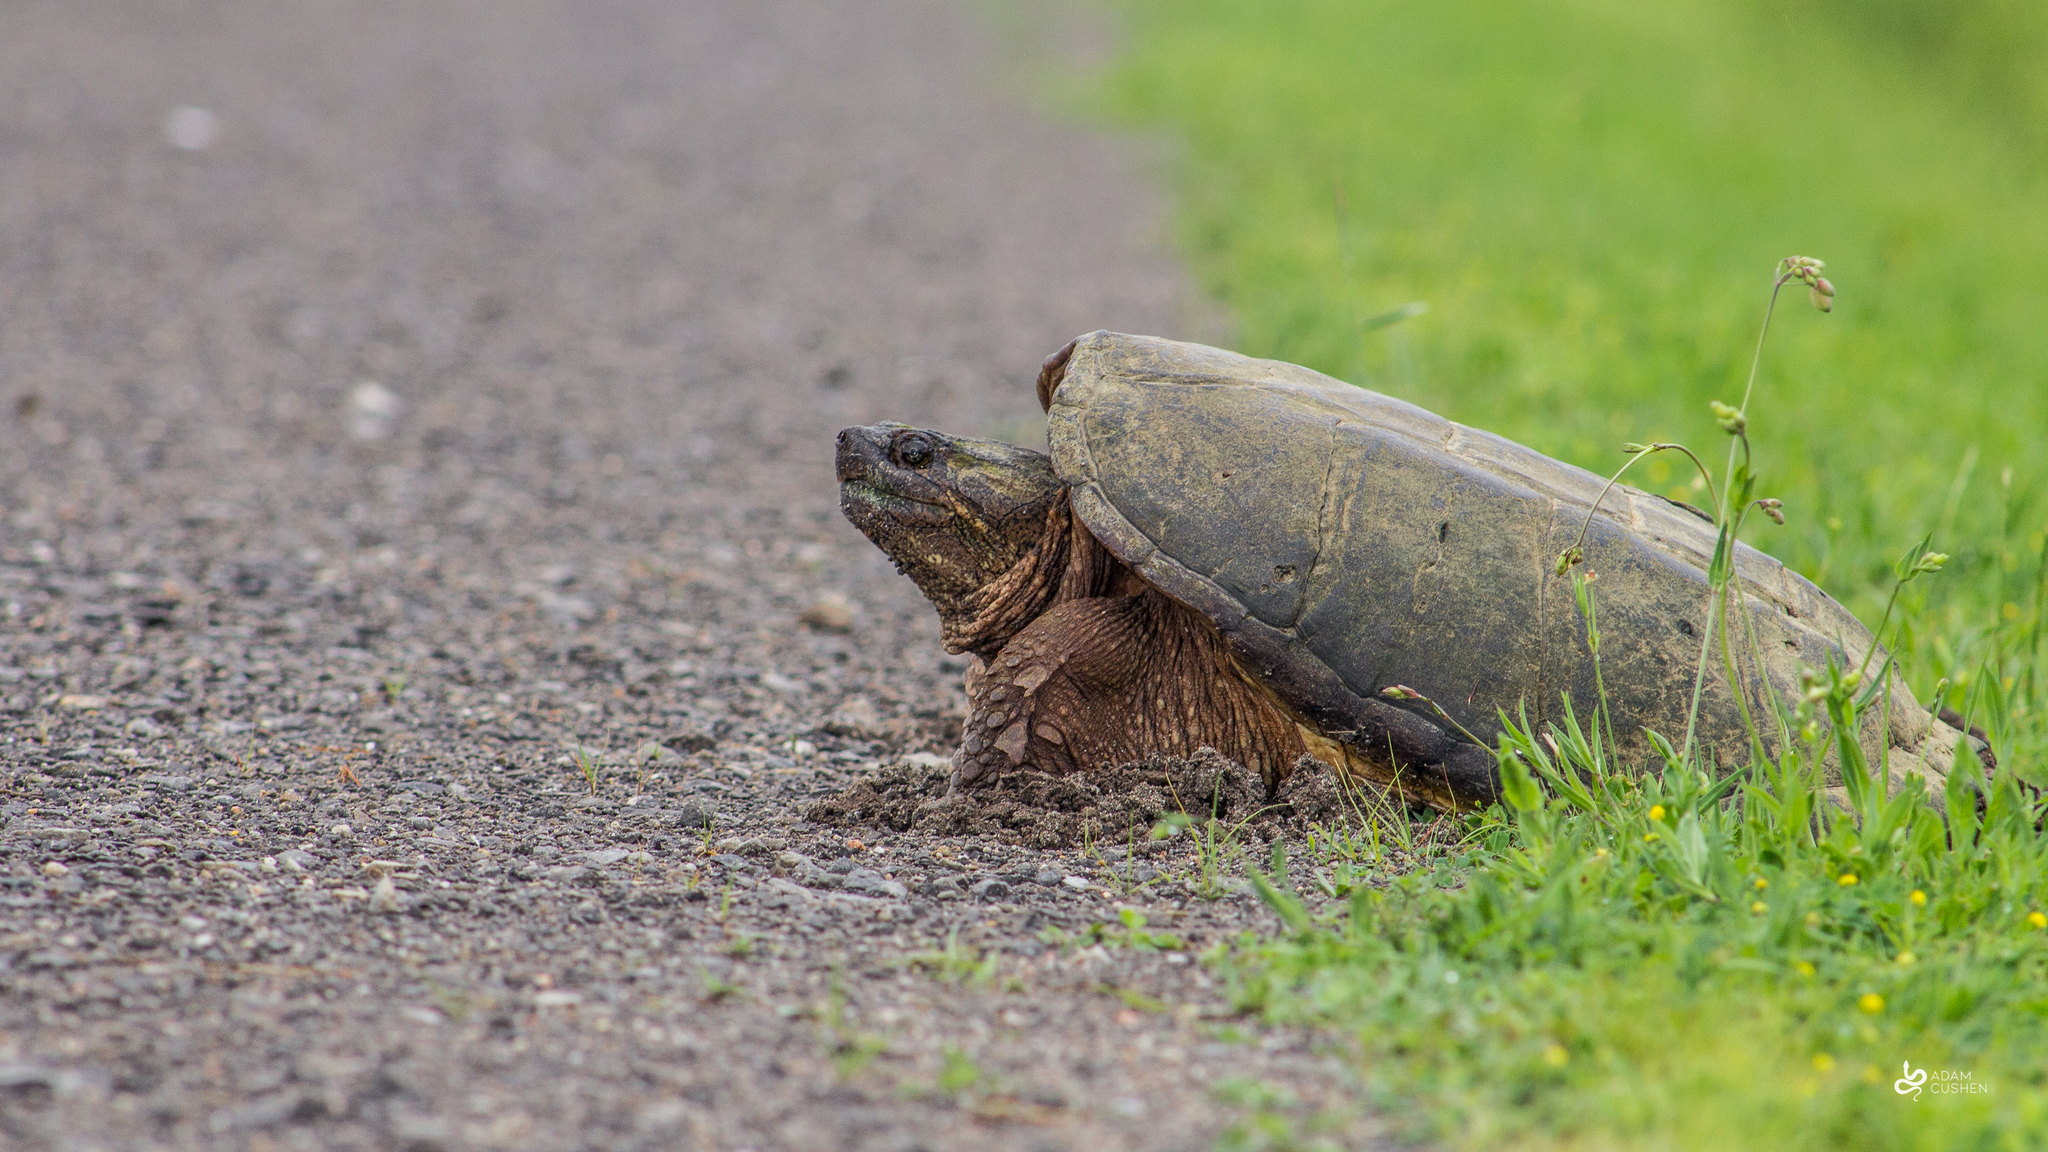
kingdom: Animalia
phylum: Chordata
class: Testudines
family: Chelydridae
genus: Chelydra
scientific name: Chelydra serpentina
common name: Common snapping turtle
